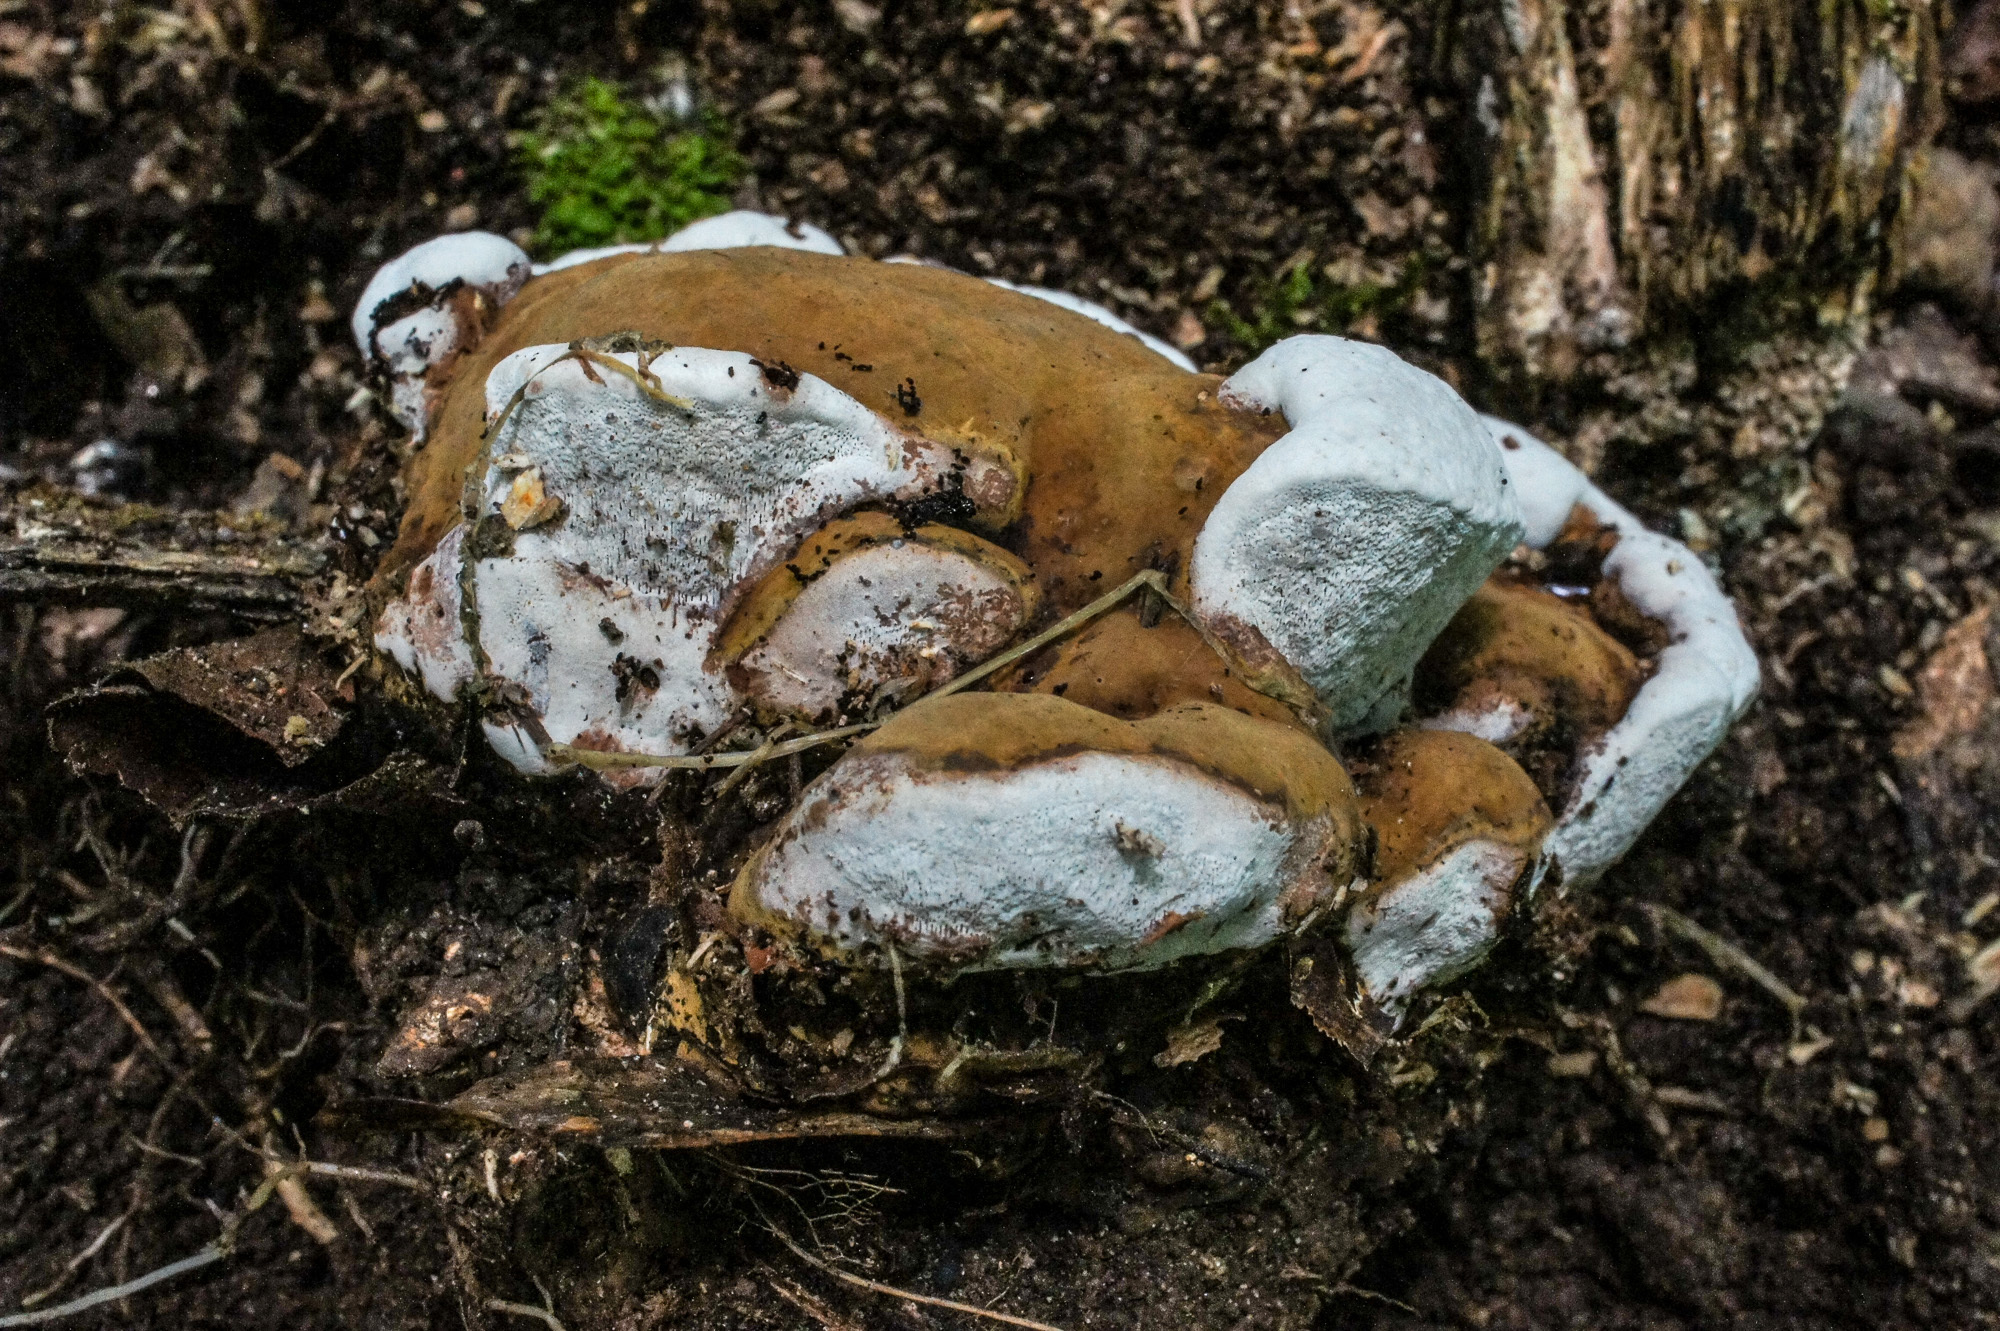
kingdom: Fungi
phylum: Basidiomycota
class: Agaricomycetes
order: Polyporales
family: Polyporaceae
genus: Ganoderma
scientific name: Ganoderma lobatum
